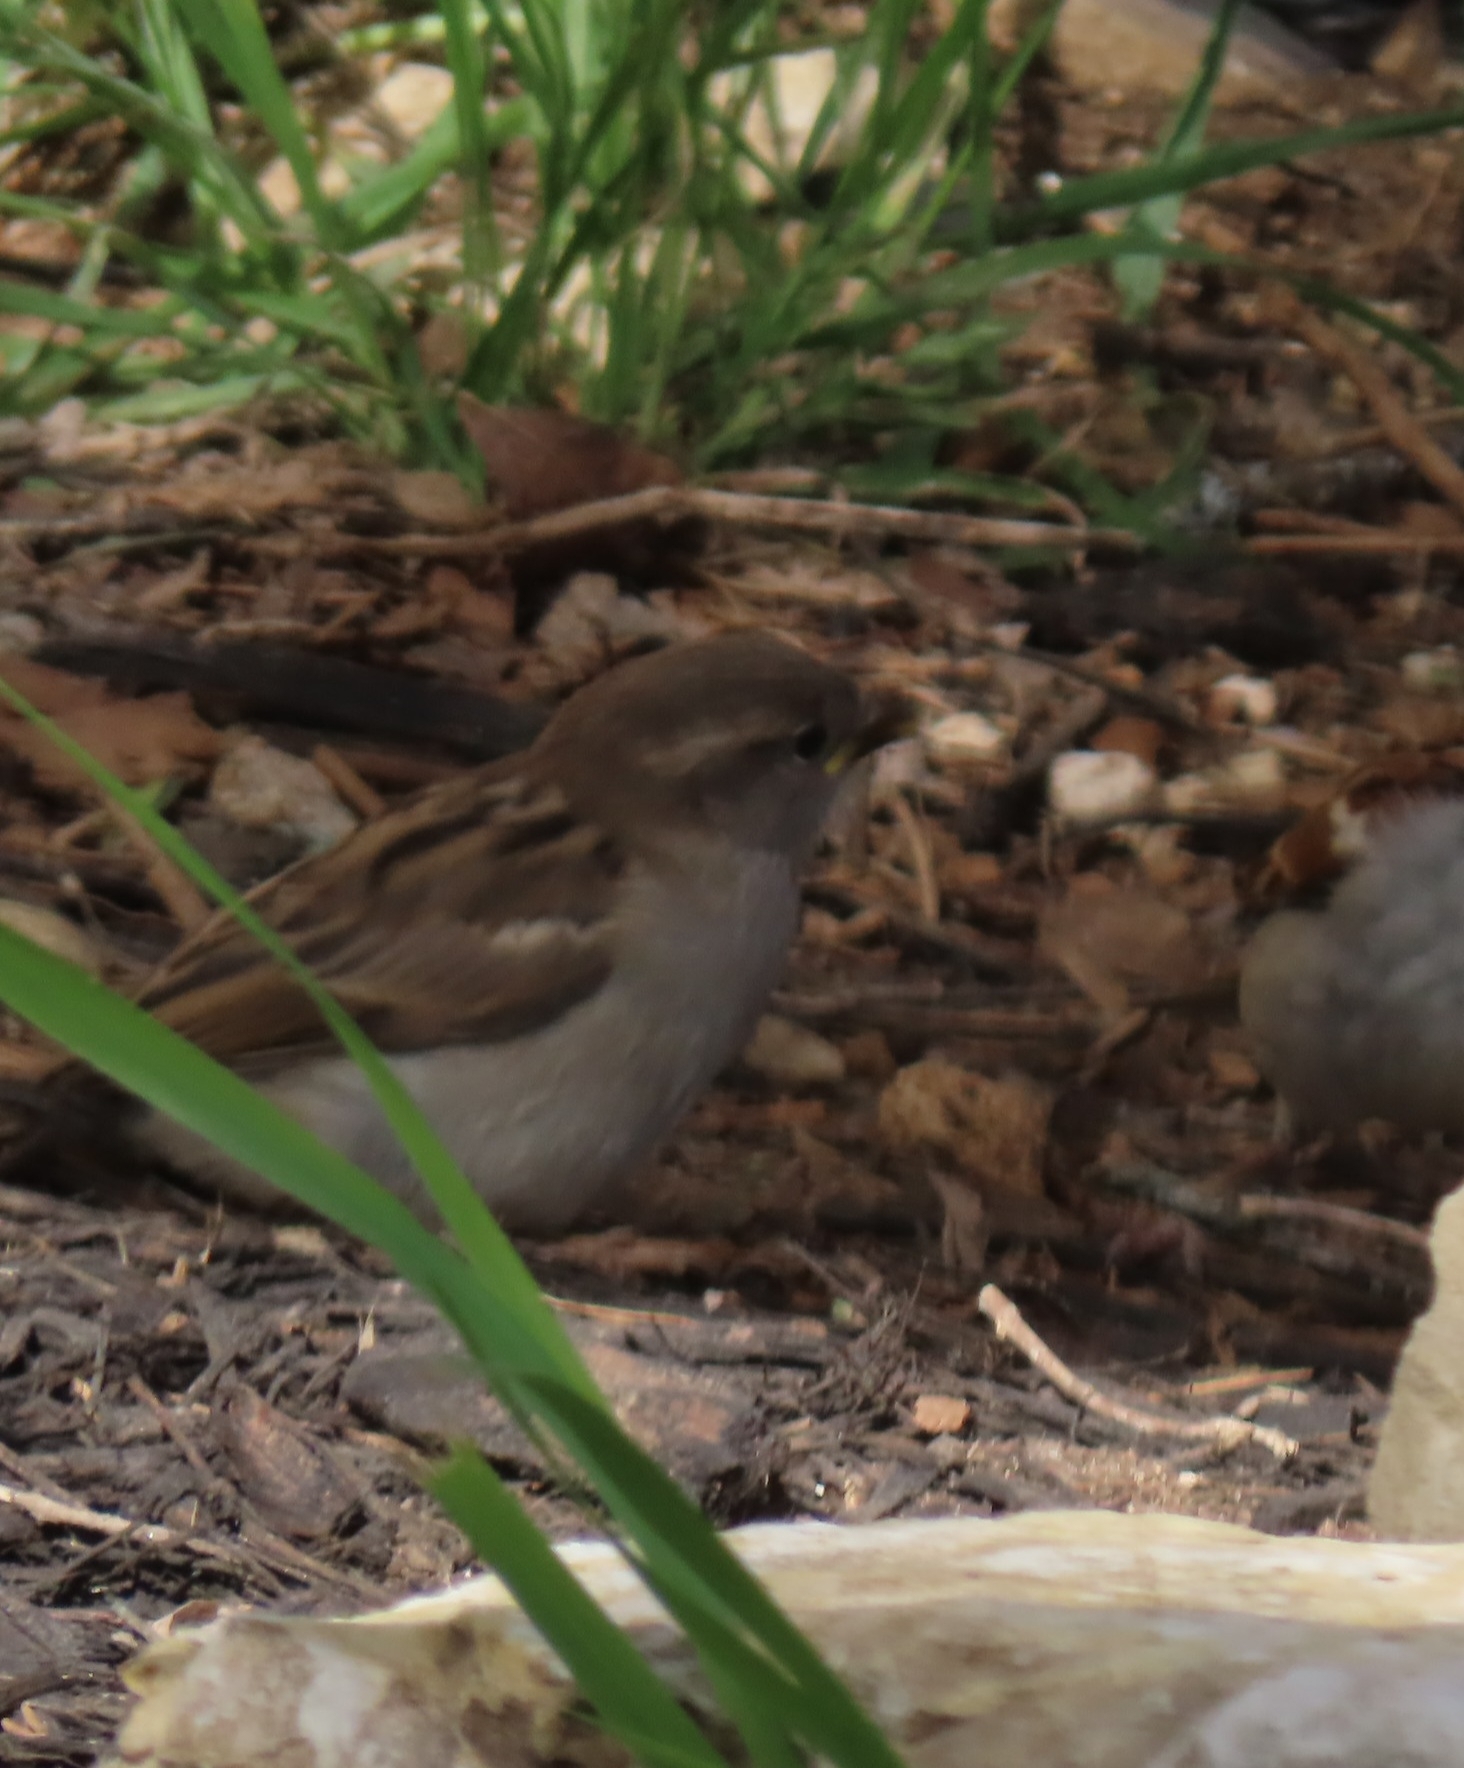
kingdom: Animalia
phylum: Chordata
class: Aves
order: Passeriformes
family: Passeridae
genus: Passer
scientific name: Passer domesticus
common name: House sparrow
